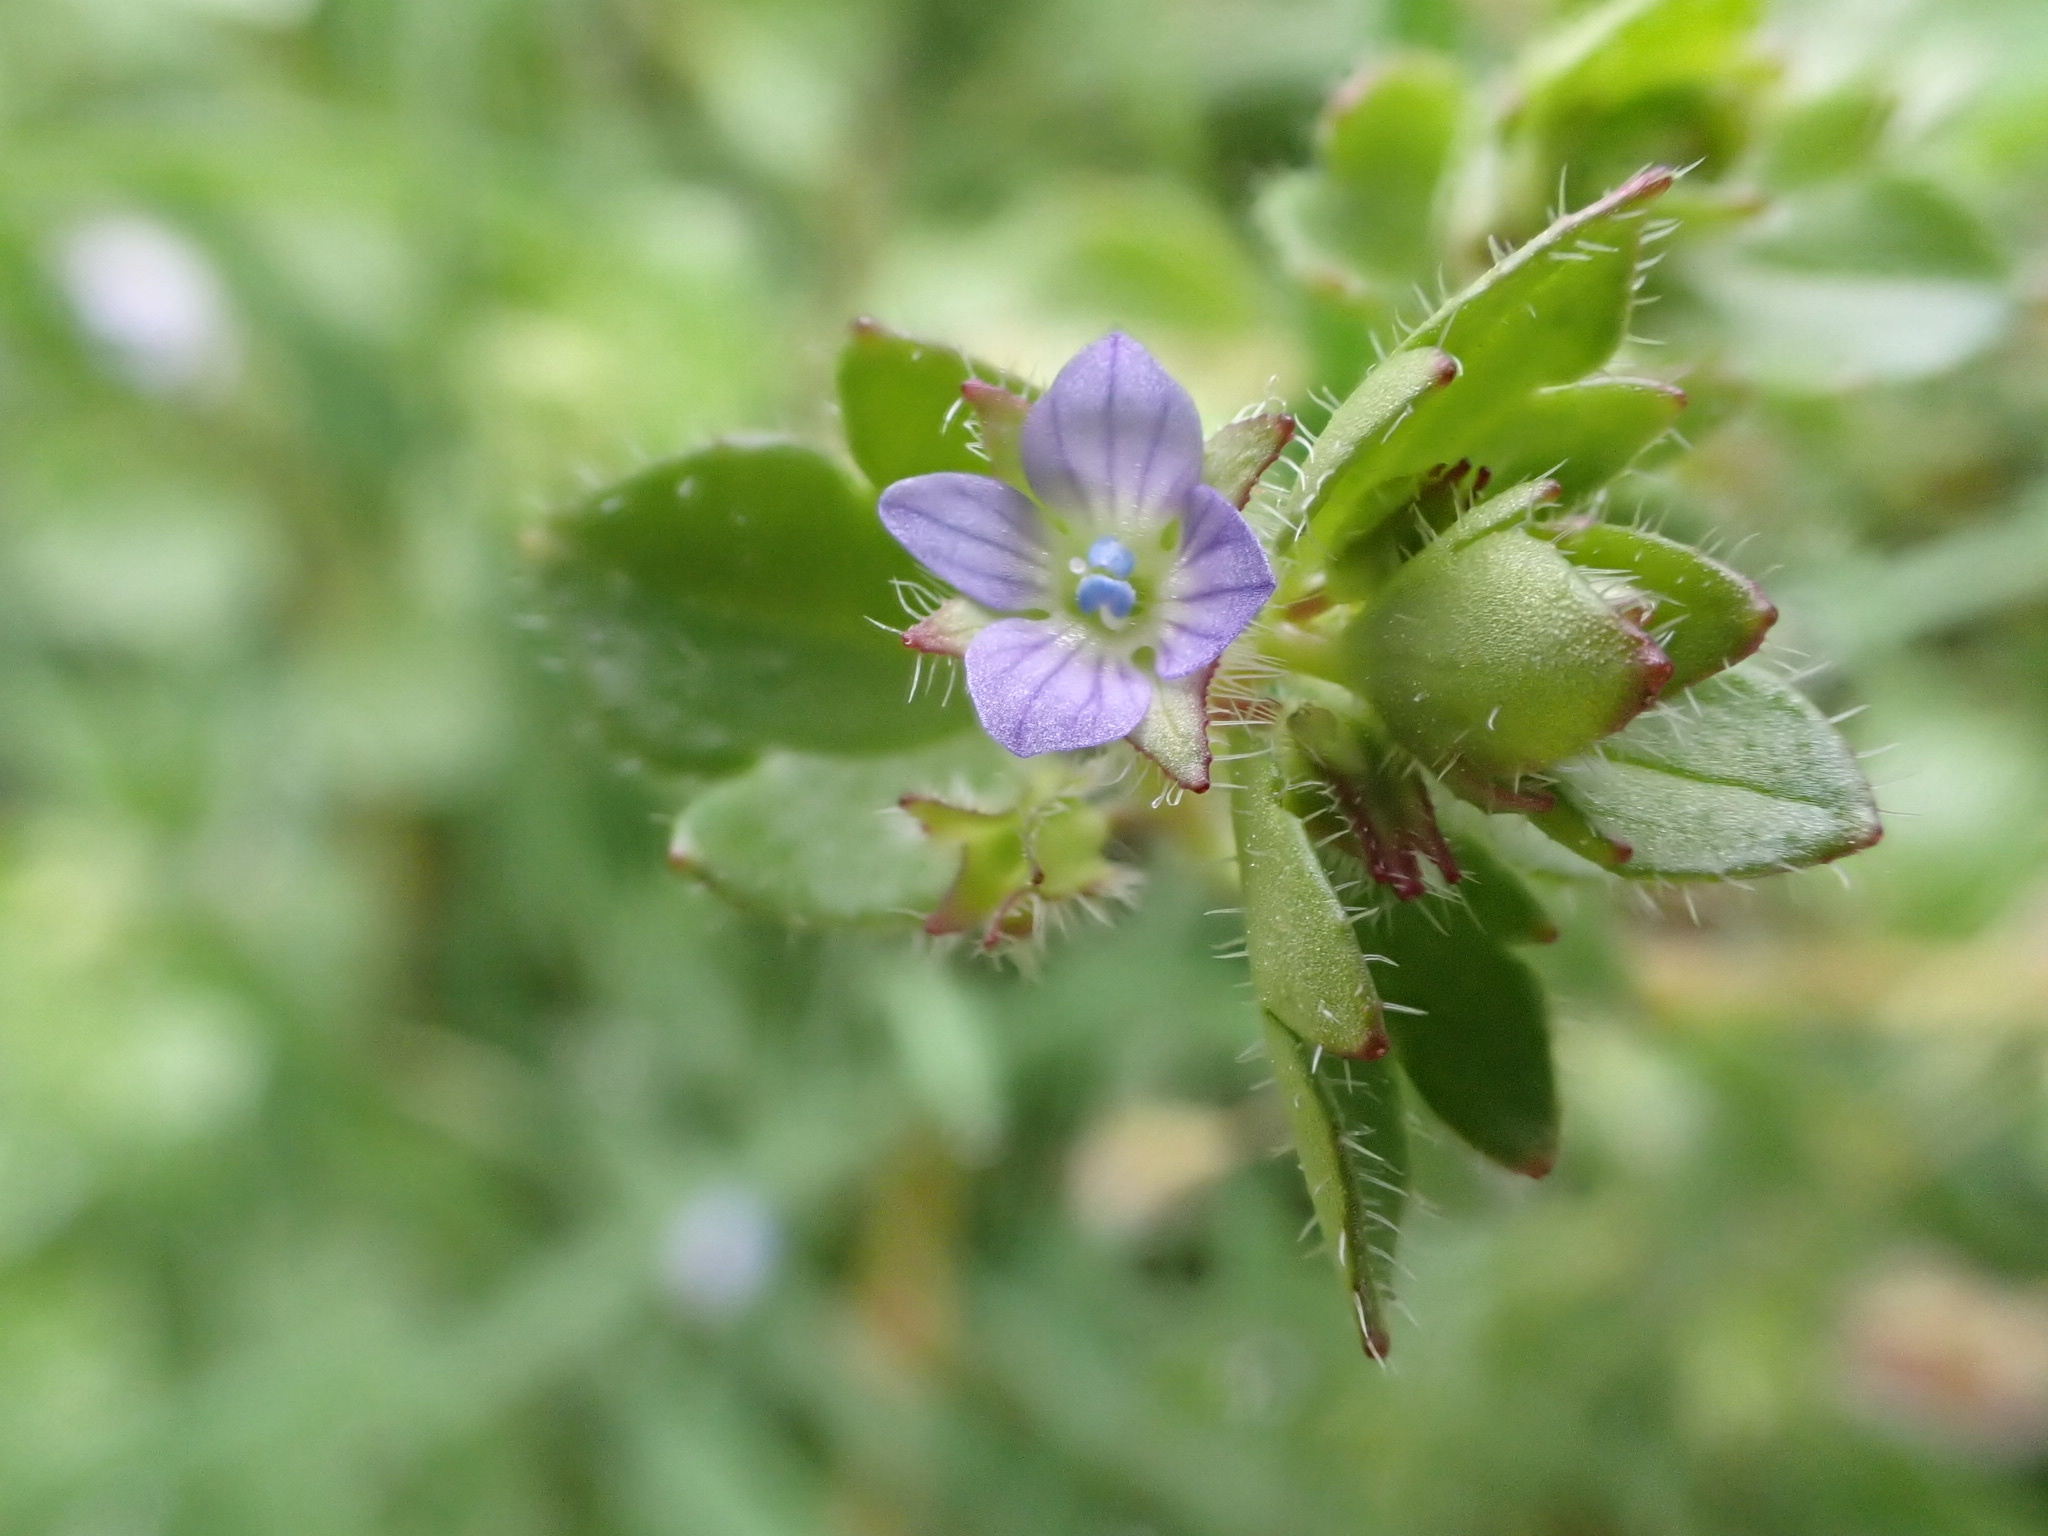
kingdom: Plantae
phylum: Tracheophyta
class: Magnoliopsida
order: Lamiales
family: Plantaginaceae
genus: Veronica
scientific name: Veronica hederifolia
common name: Ivy-leaved speedwell
